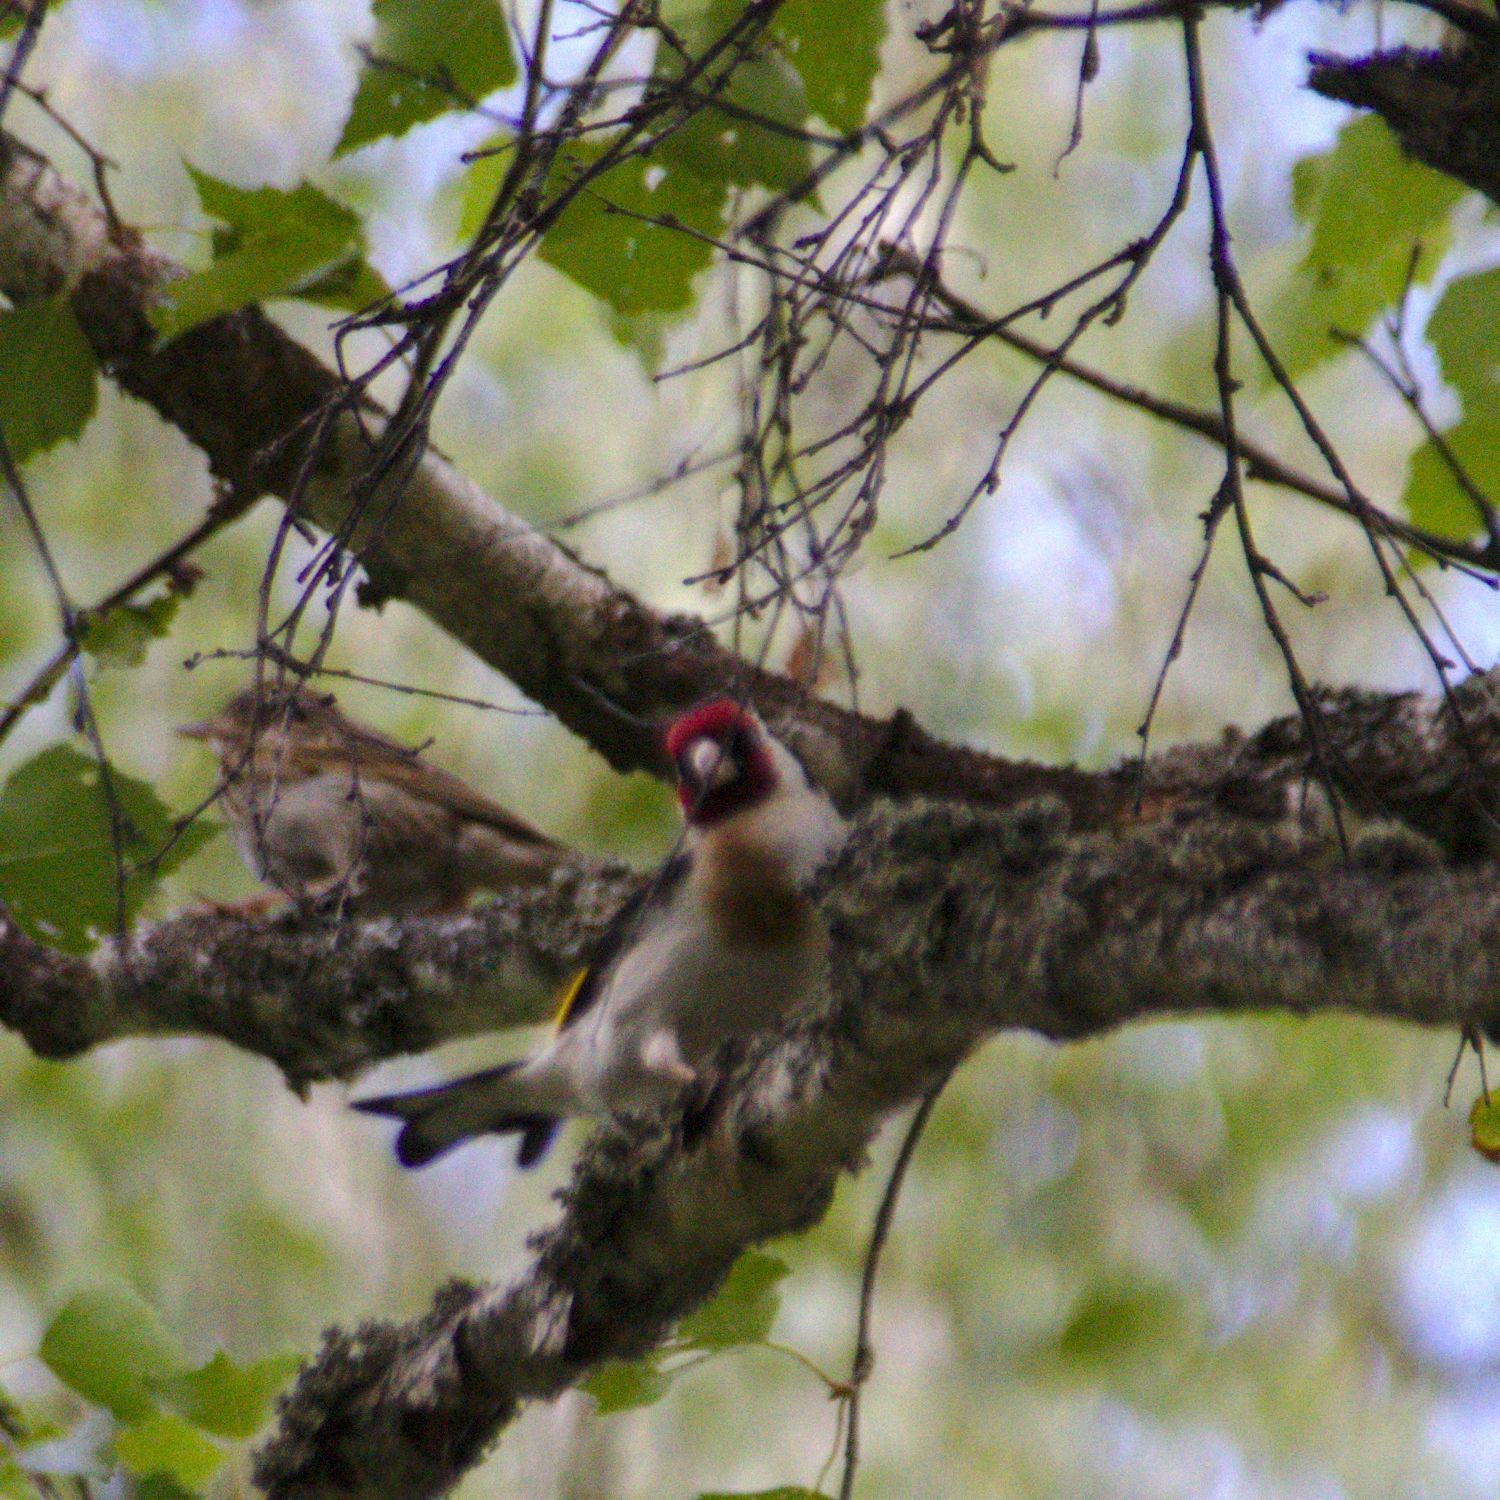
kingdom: Animalia
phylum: Chordata
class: Aves
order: Passeriformes
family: Fringillidae
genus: Carduelis
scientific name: Carduelis carduelis
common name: European goldfinch
